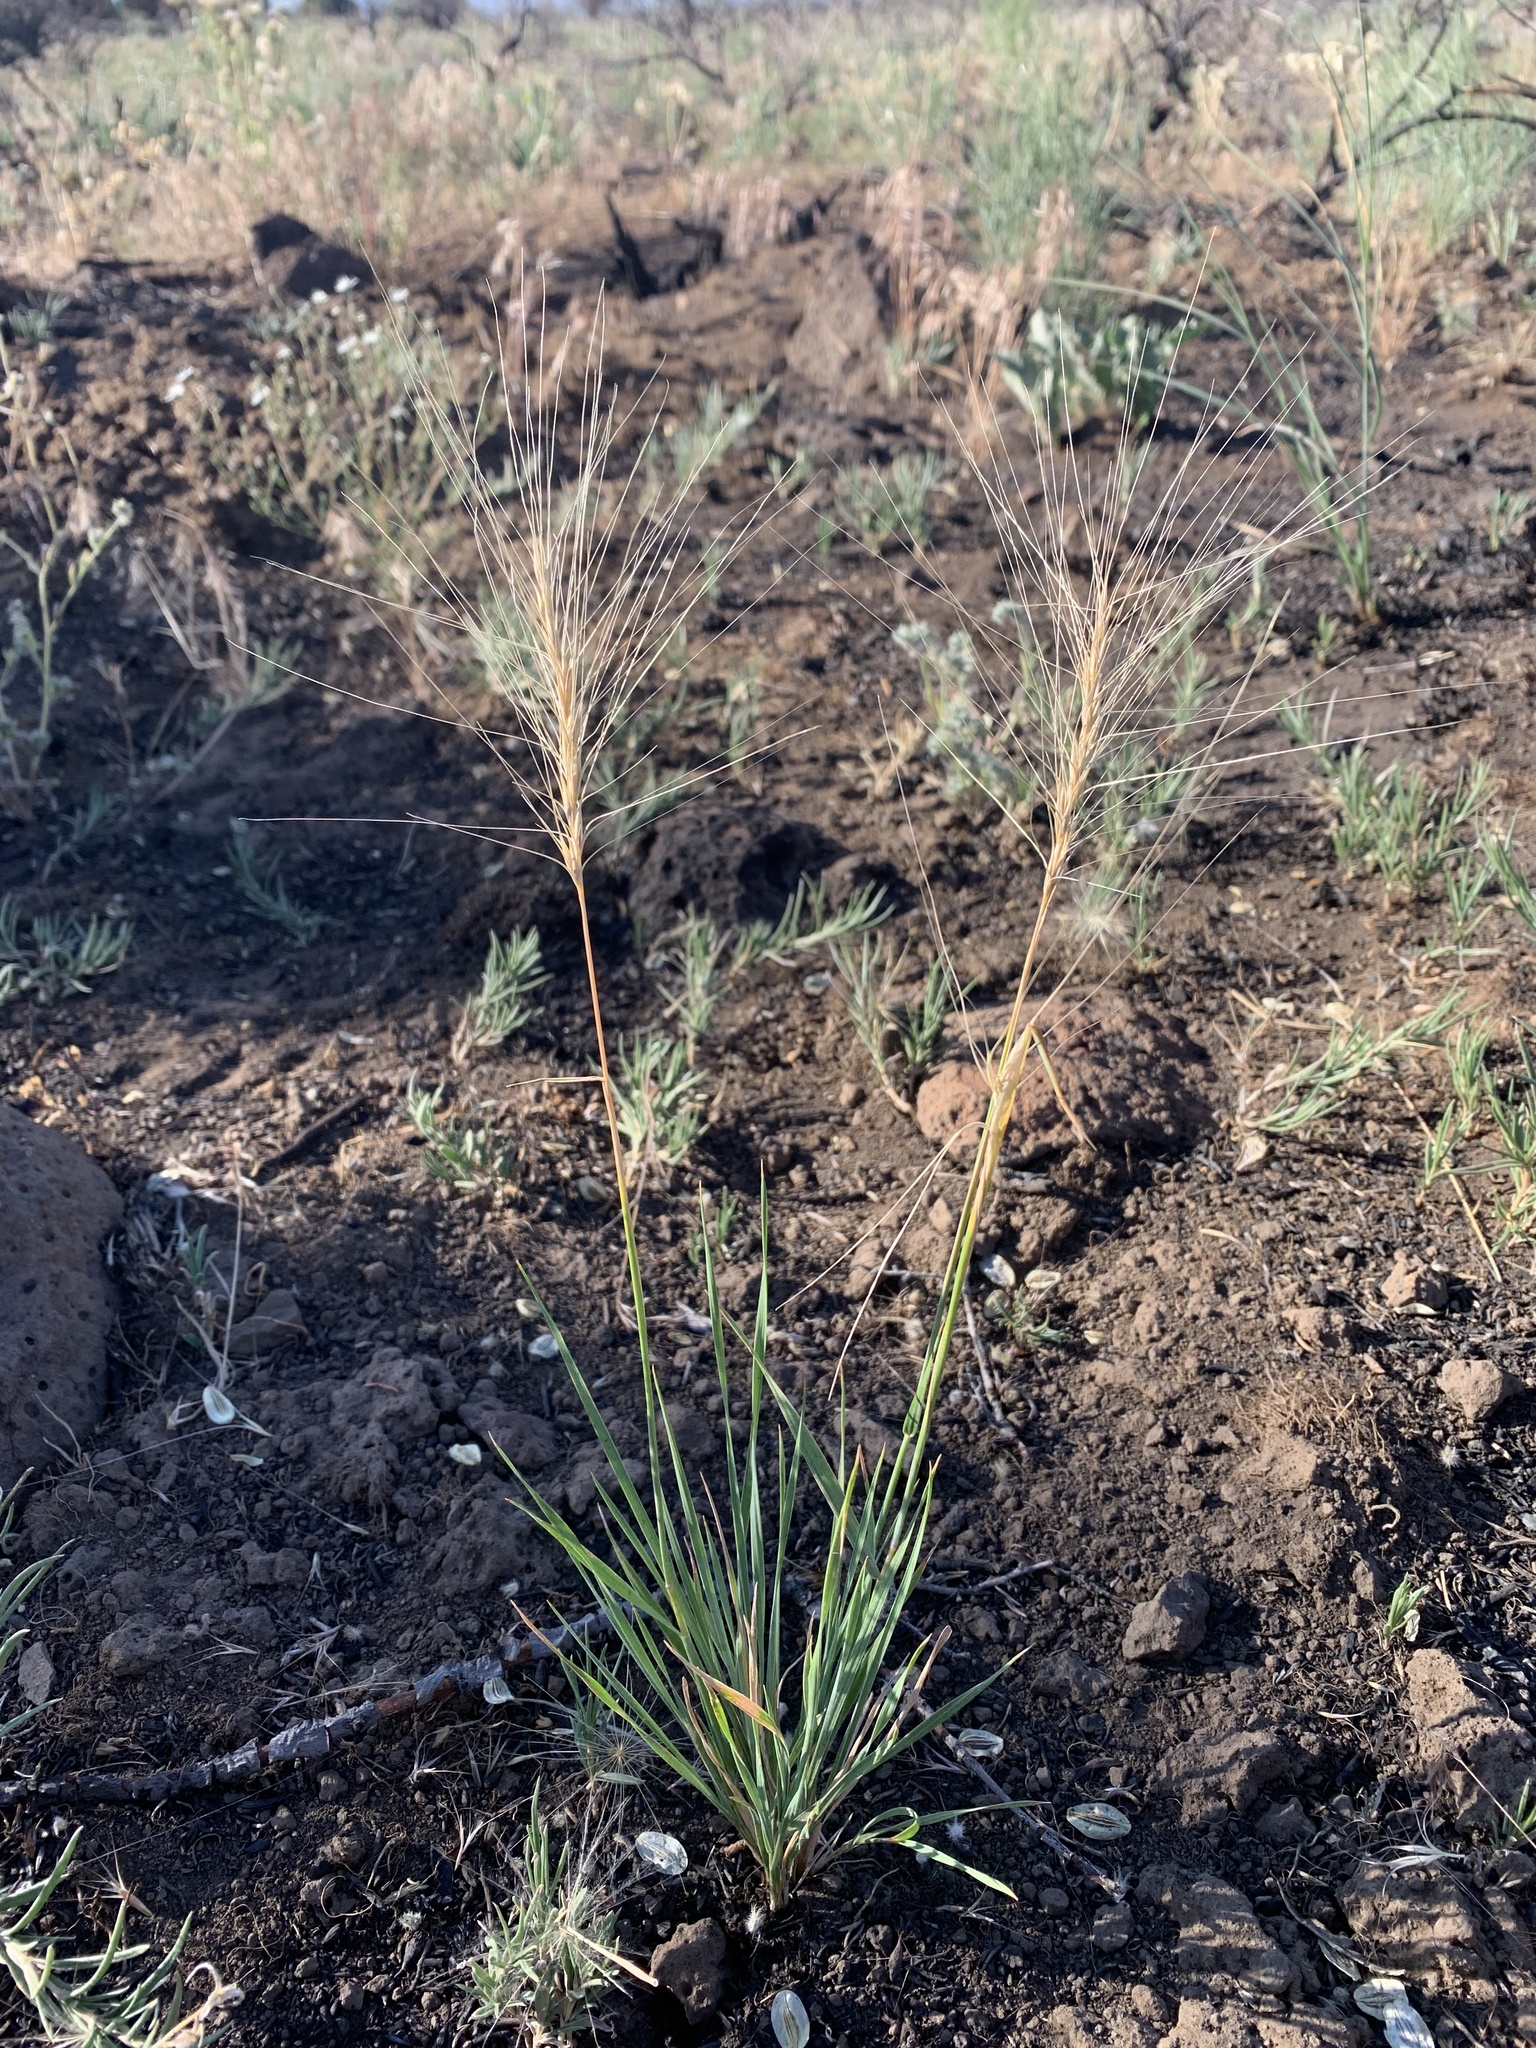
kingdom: Plantae
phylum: Tracheophyta
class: Liliopsida
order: Poales
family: Poaceae
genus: Elymus
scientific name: Elymus elymoides
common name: Bottlebrush squirreltail
